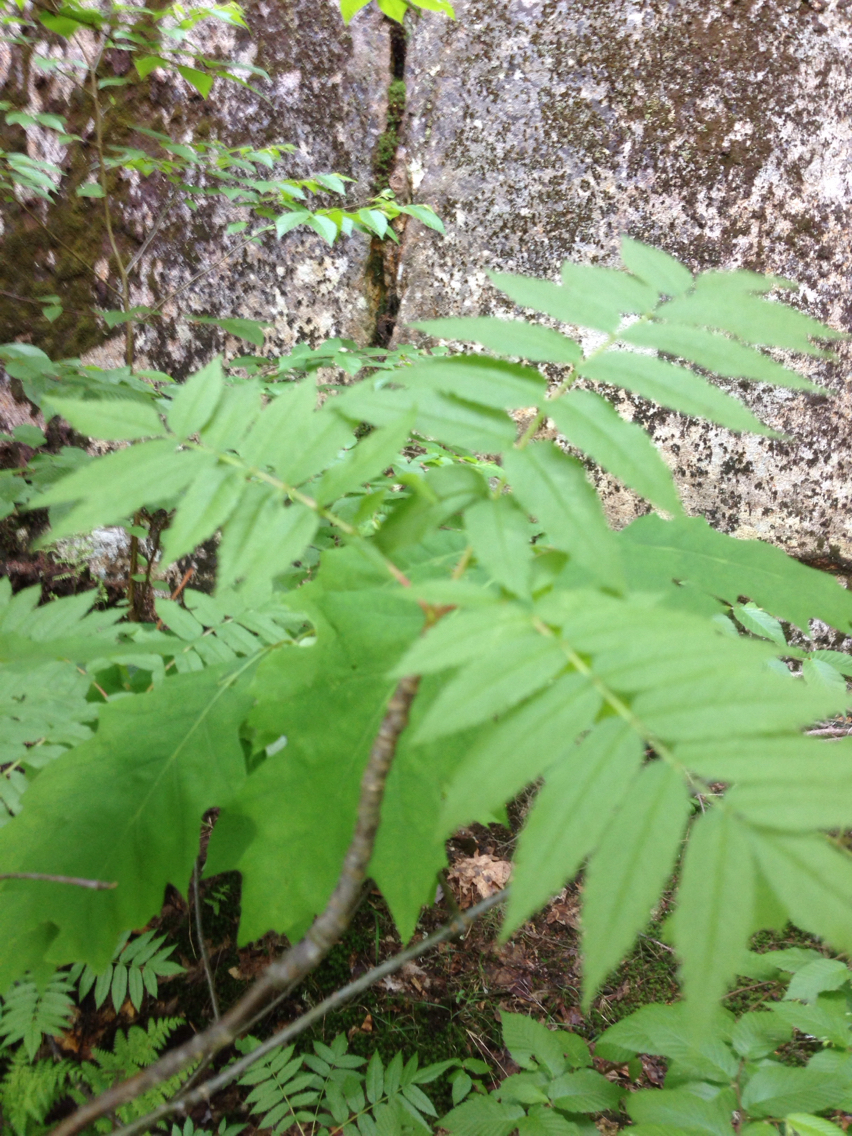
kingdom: Plantae
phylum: Tracheophyta
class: Magnoliopsida
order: Rosales
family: Rosaceae
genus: Sorbus
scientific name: Sorbus americana
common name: American mountain-ash
